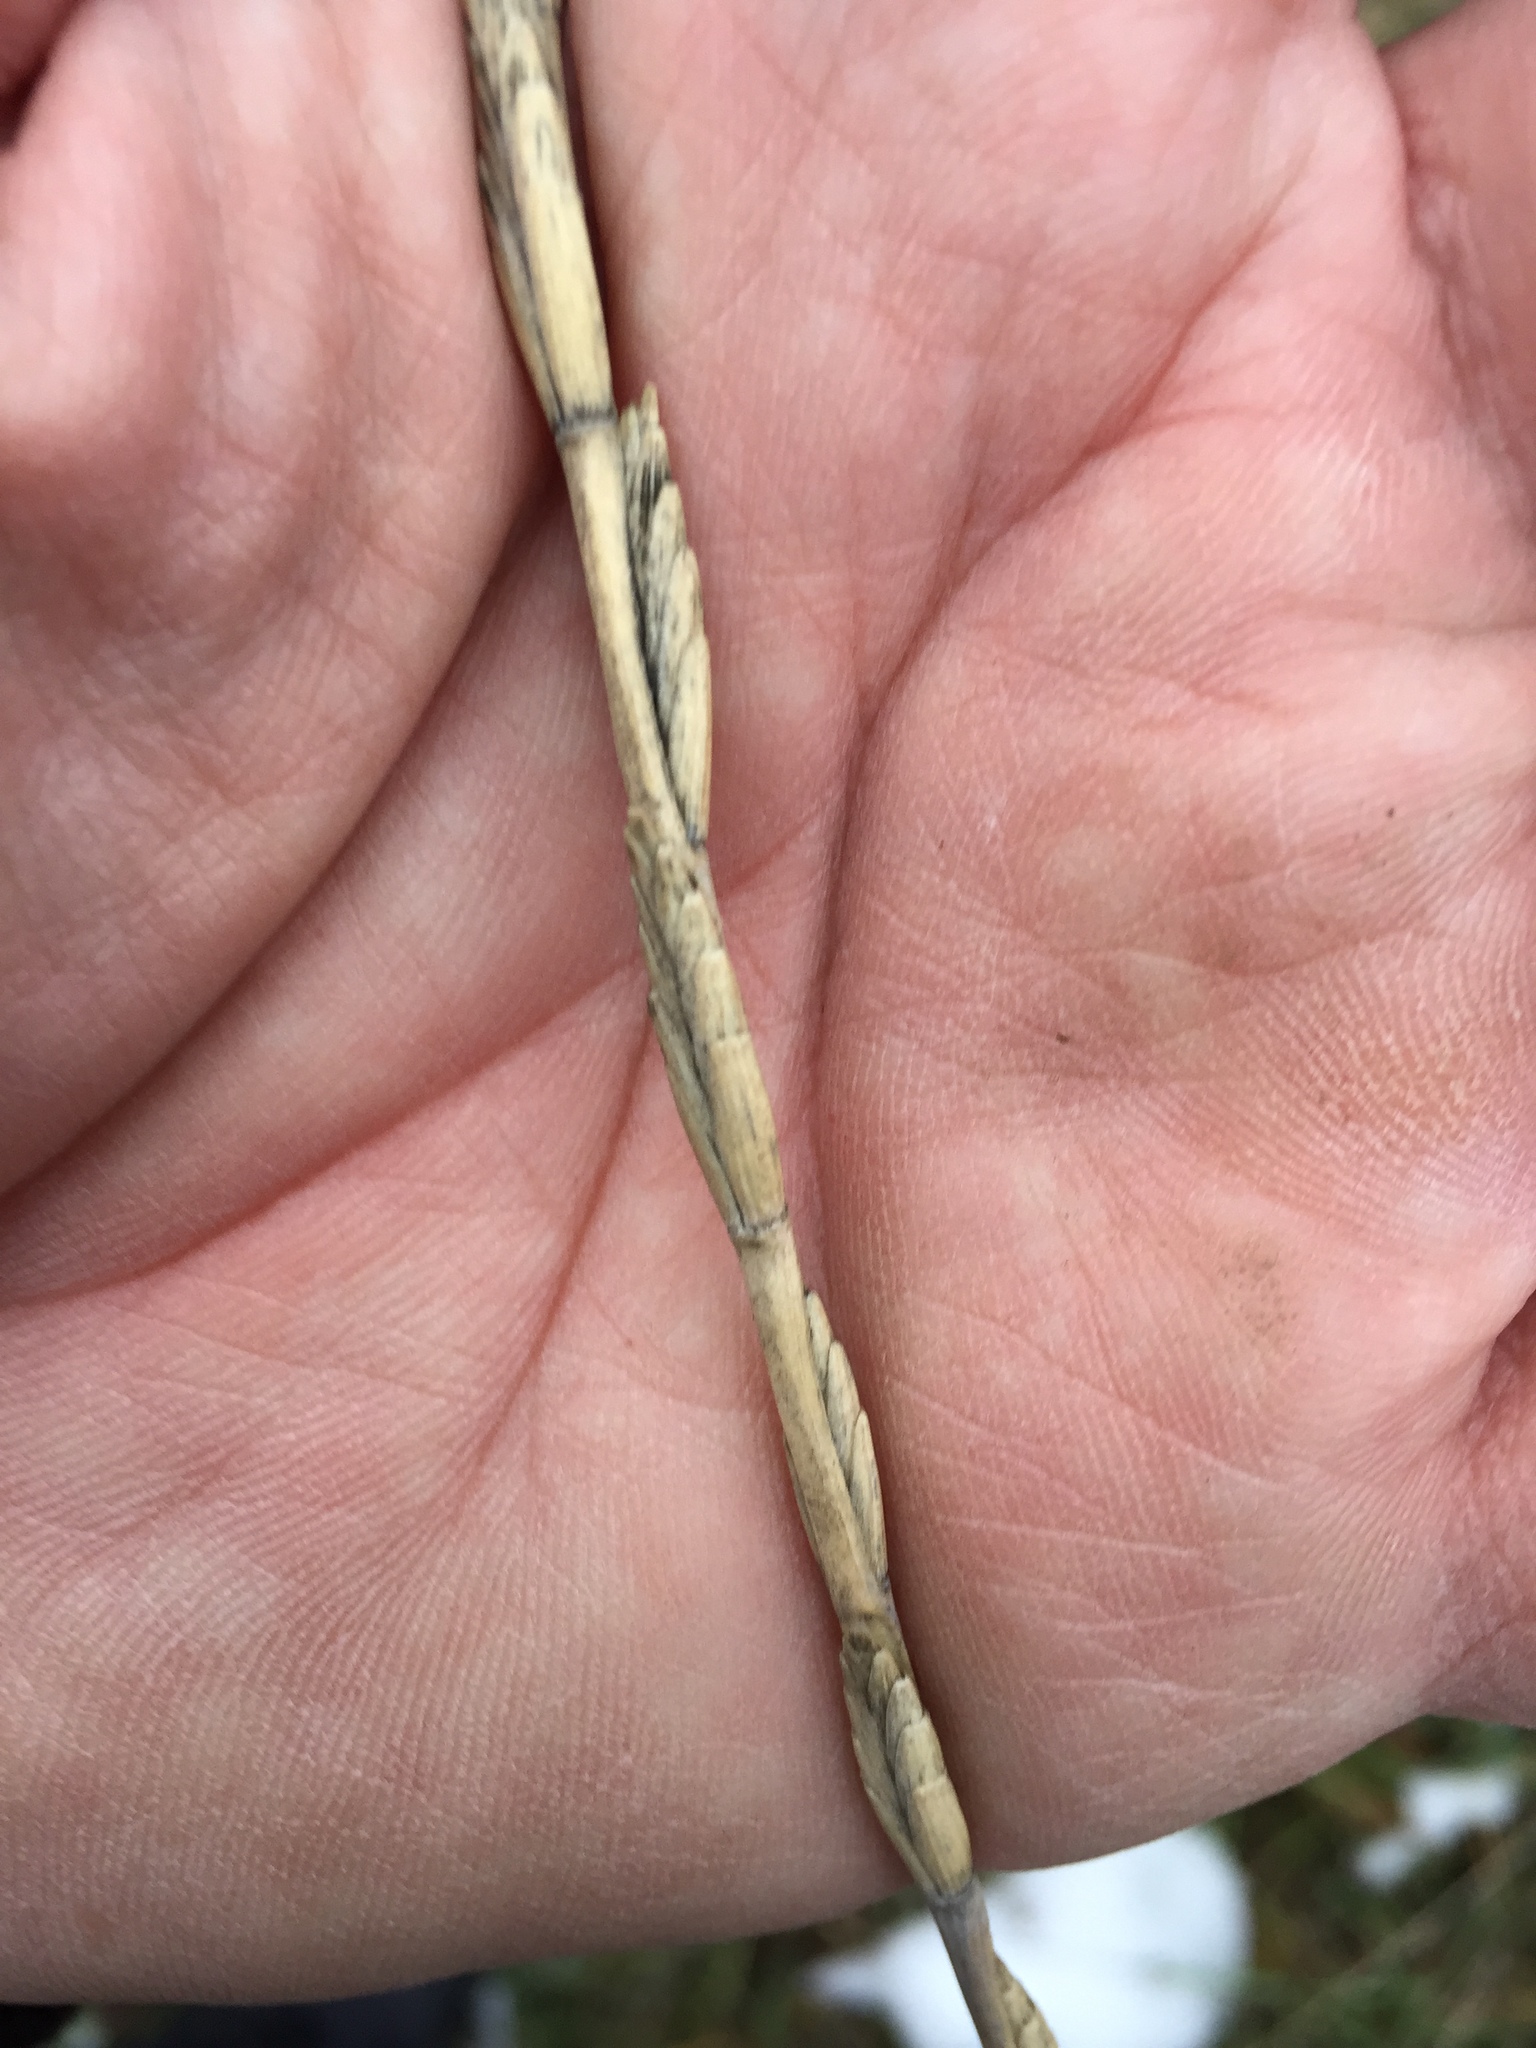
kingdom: Plantae
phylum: Tracheophyta
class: Liliopsida
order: Poales
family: Poaceae
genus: Thinopyrum
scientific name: Thinopyrum intermedium
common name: Intermediate wheatgrass
